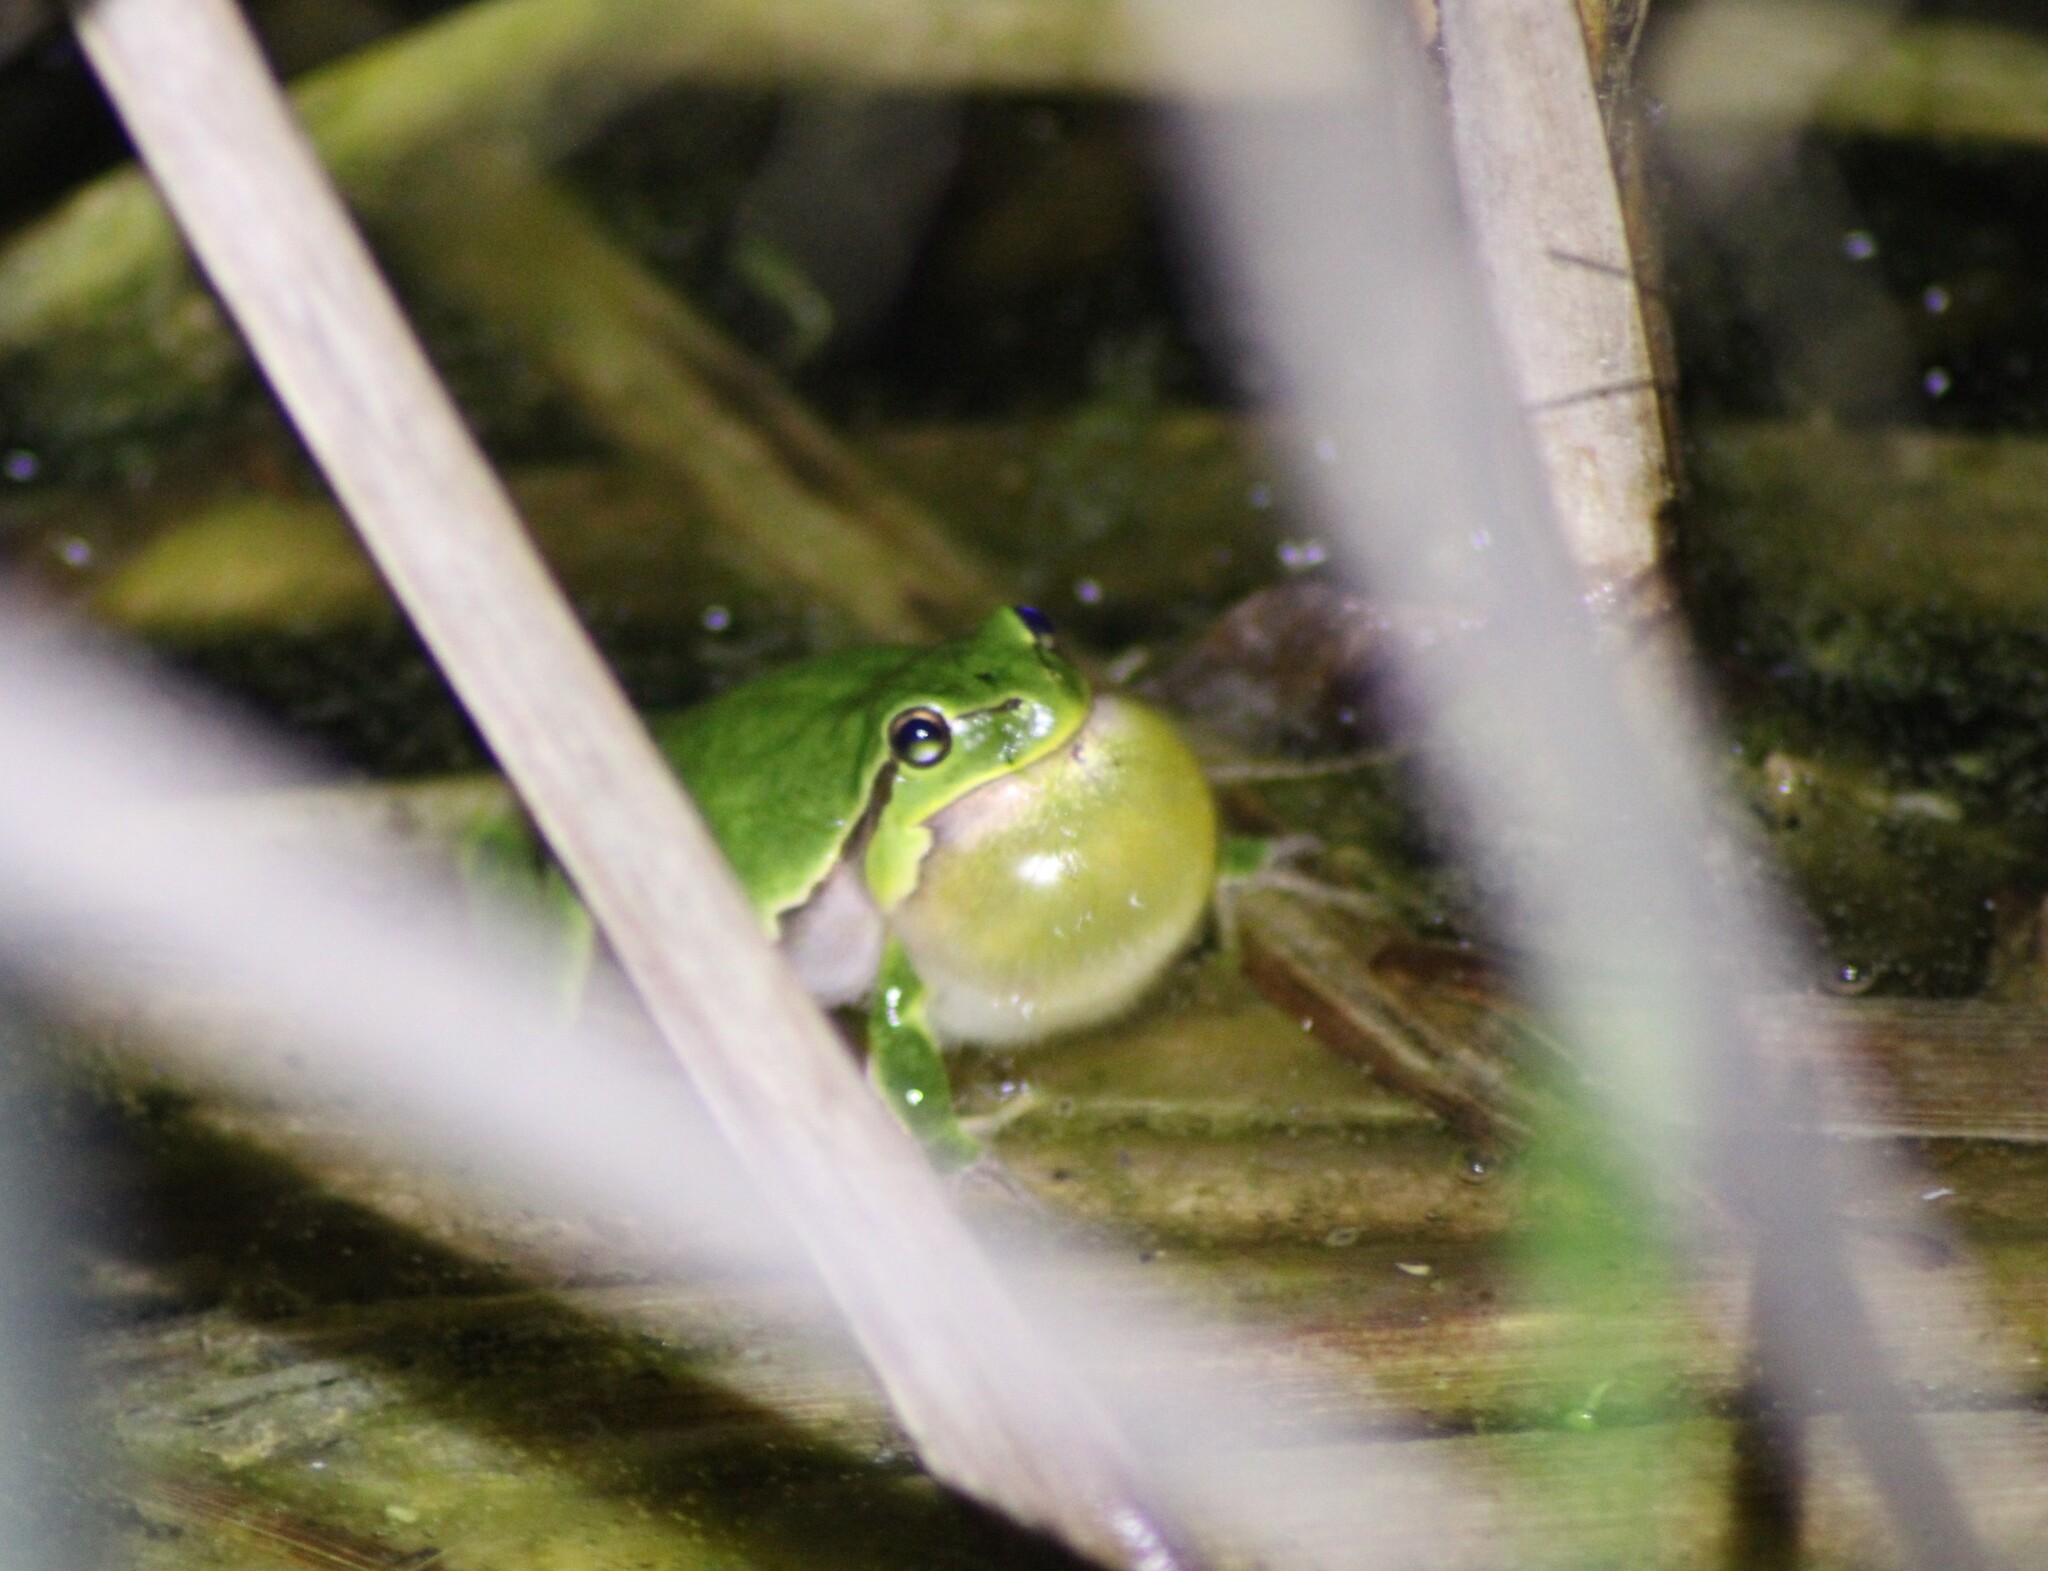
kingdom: Animalia
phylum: Chordata
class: Amphibia
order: Anura
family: Hylidae
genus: Hyla
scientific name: Hyla arborea
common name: Common tree frog
